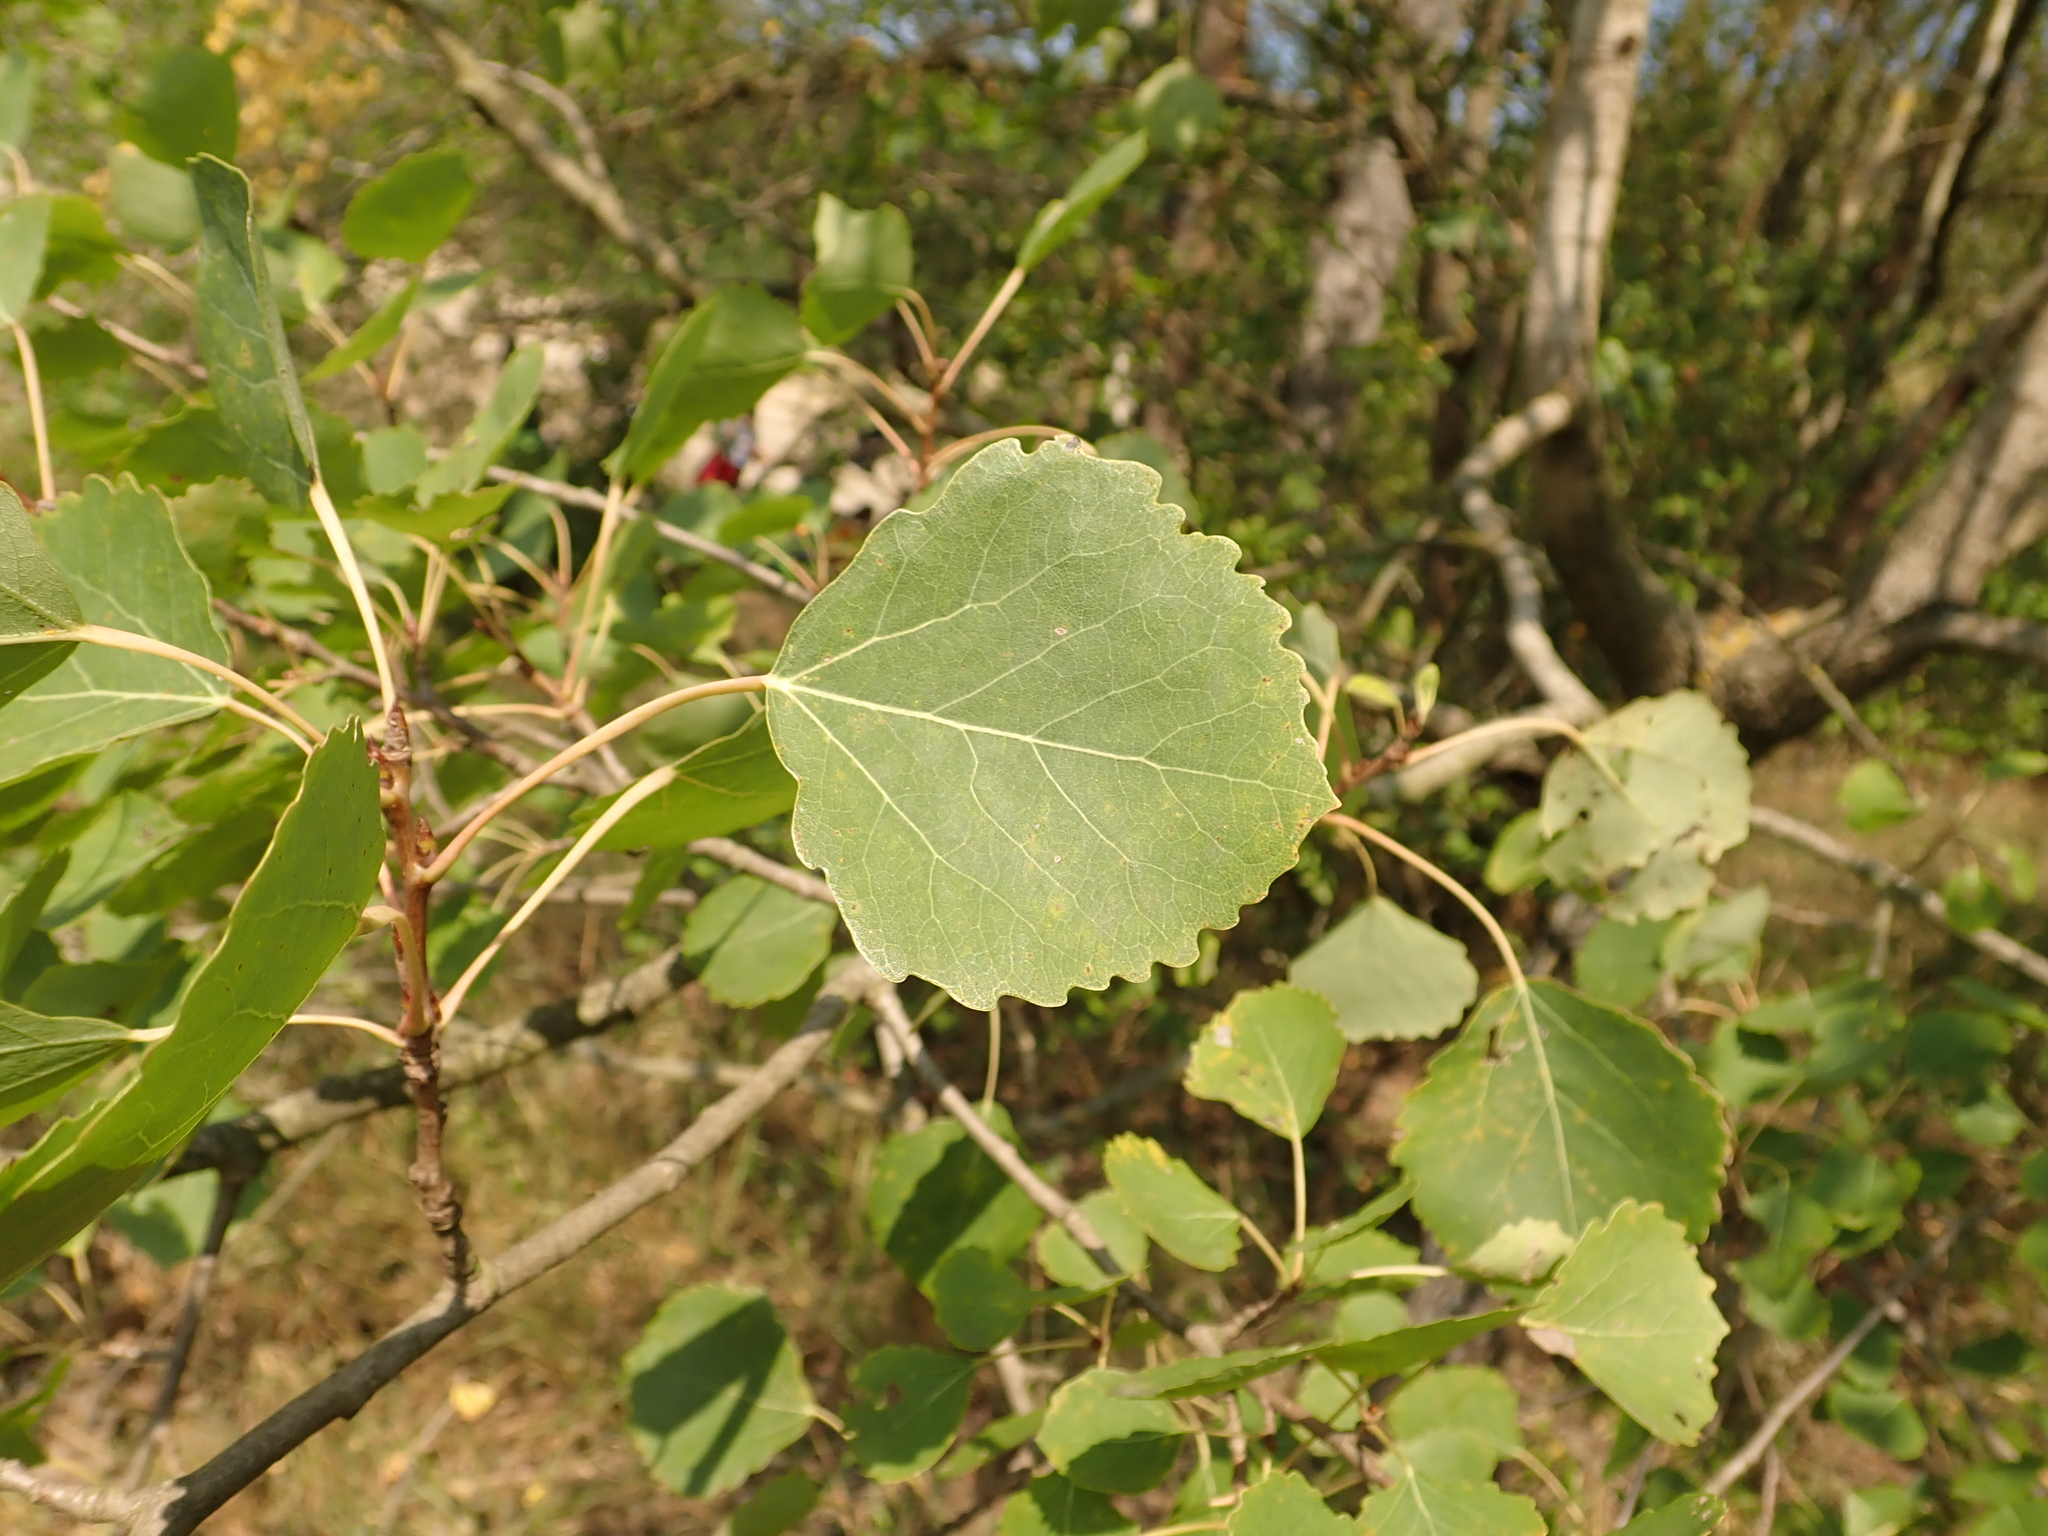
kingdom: Plantae
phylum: Tracheophyta
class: Magnoliopsida
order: Malpighiales
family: Salicaceae
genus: Populus
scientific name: Populus tremula
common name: European aspen
